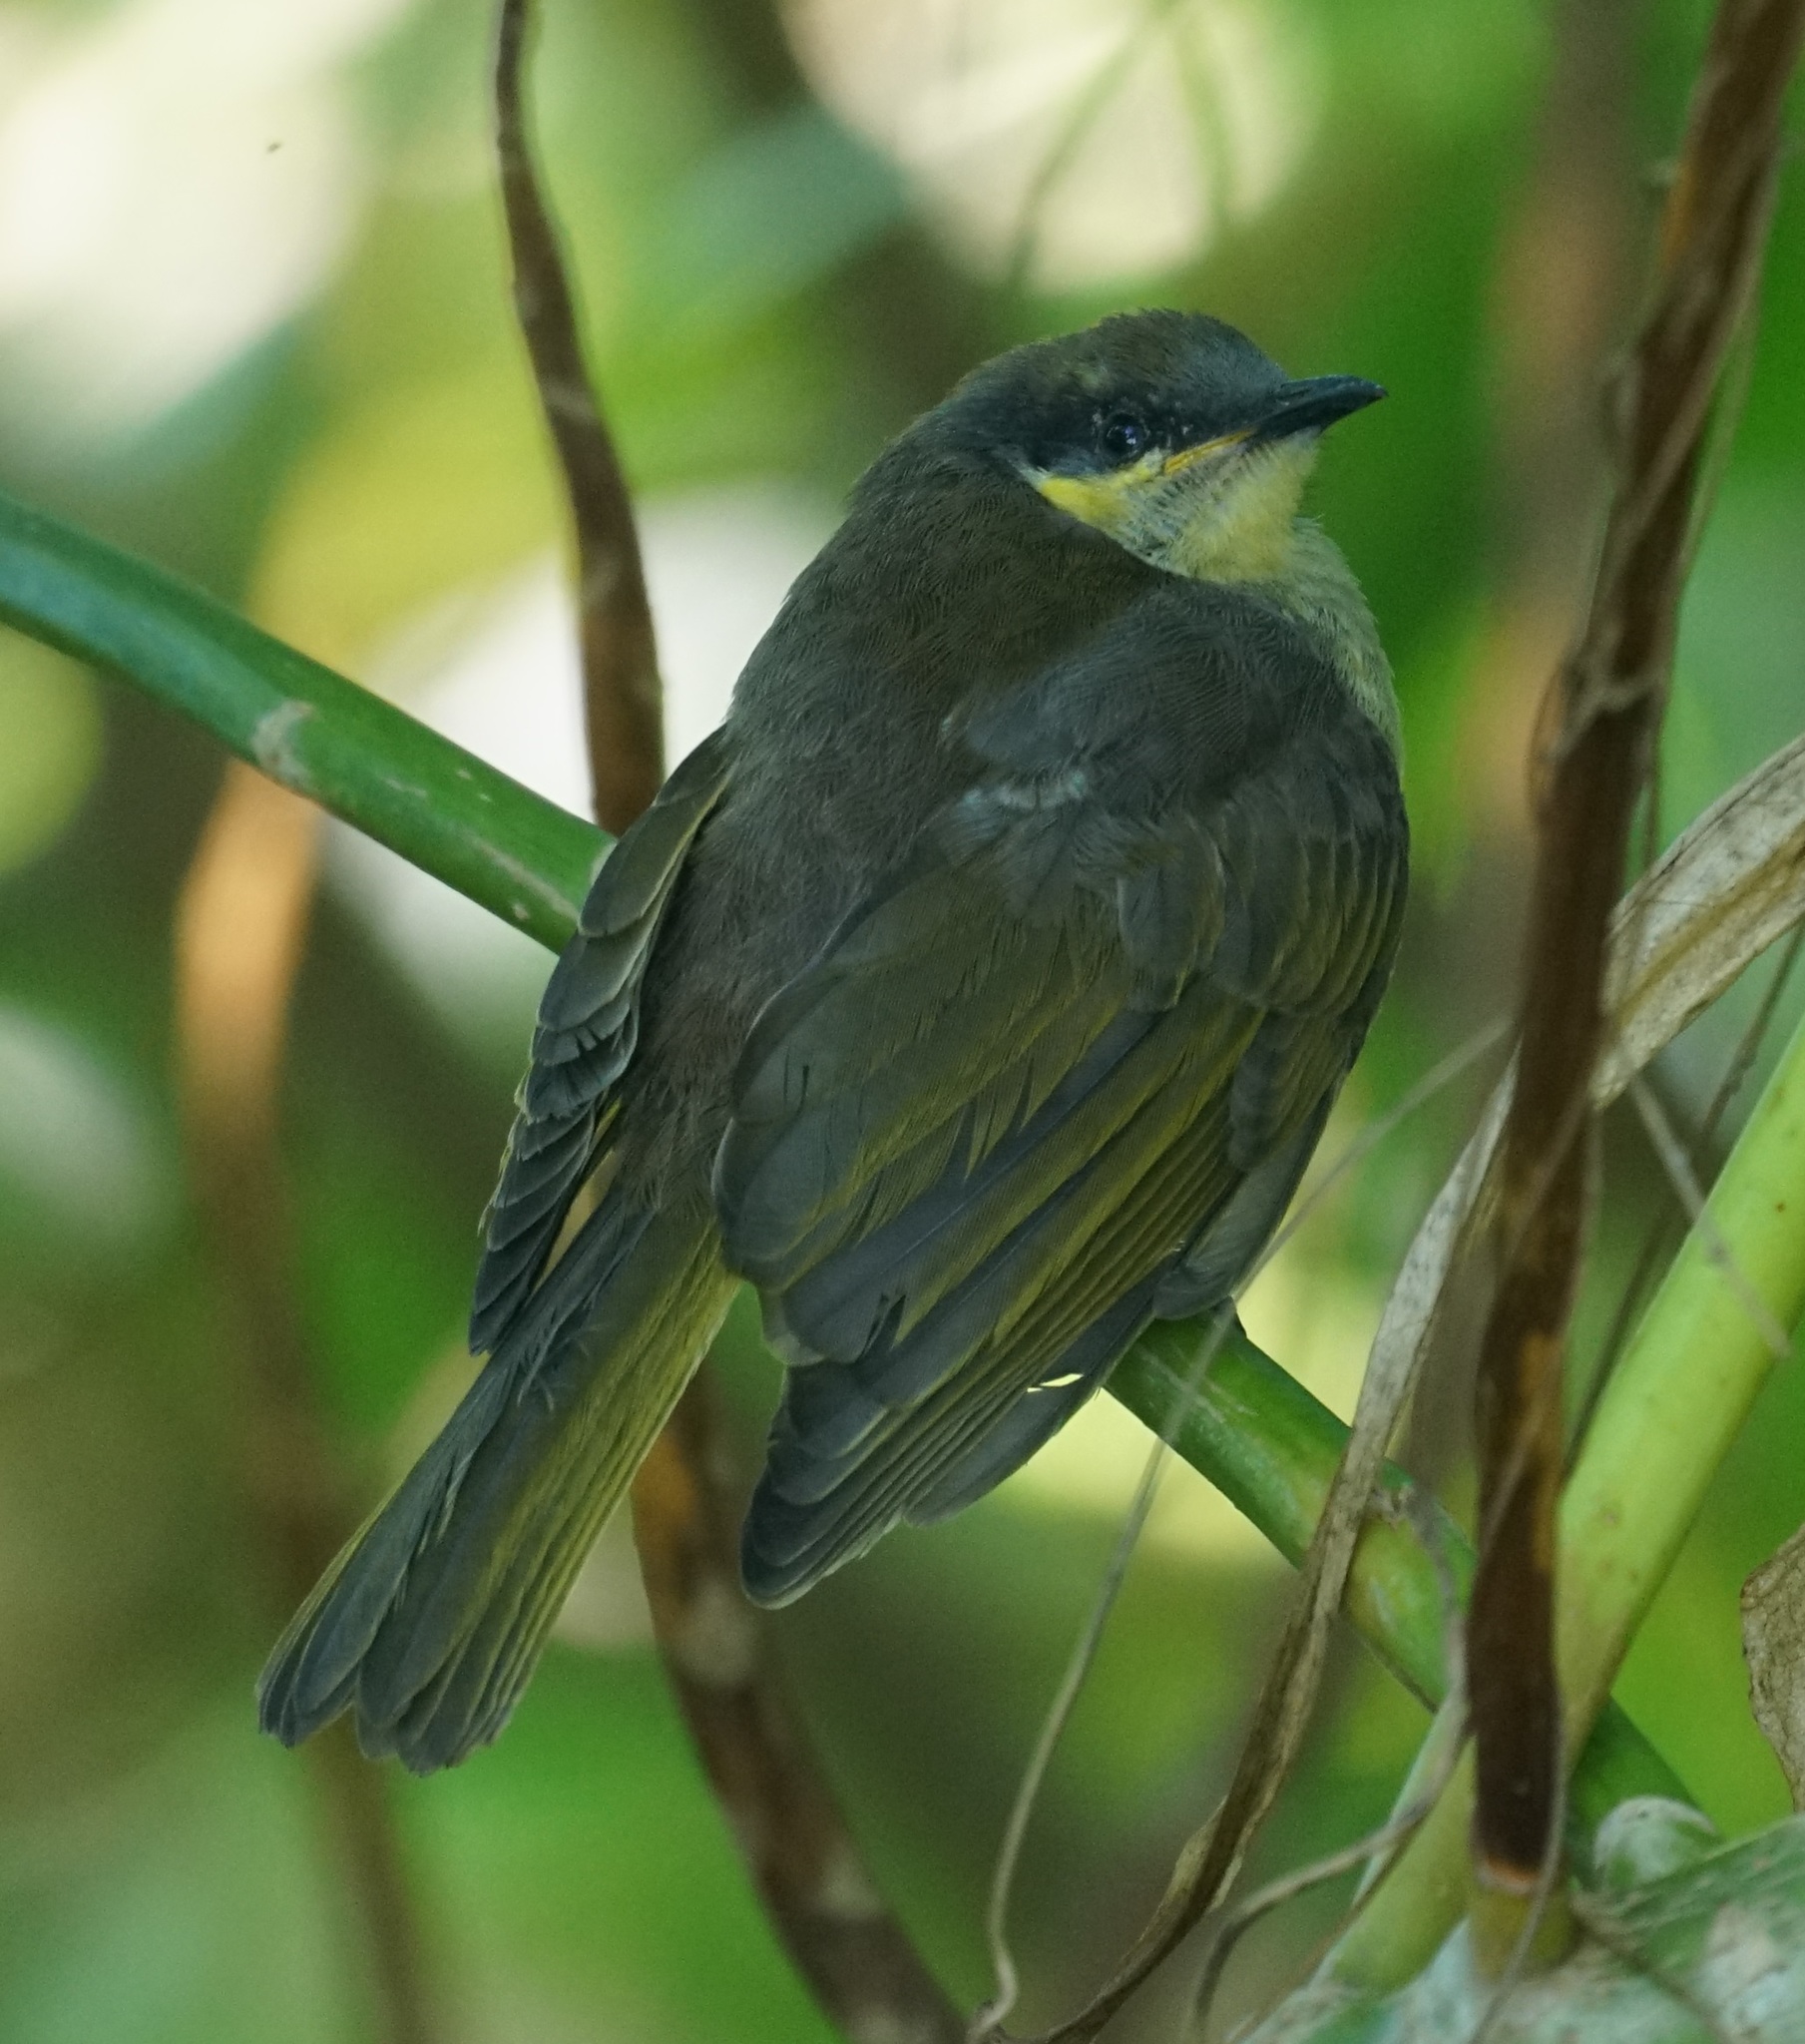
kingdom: Animalia
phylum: Chordata
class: Aves
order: Passeriformes
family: Meliphagidae
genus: Gavicalis
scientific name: Gavicalis versicolor
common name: Varied honeyeater
